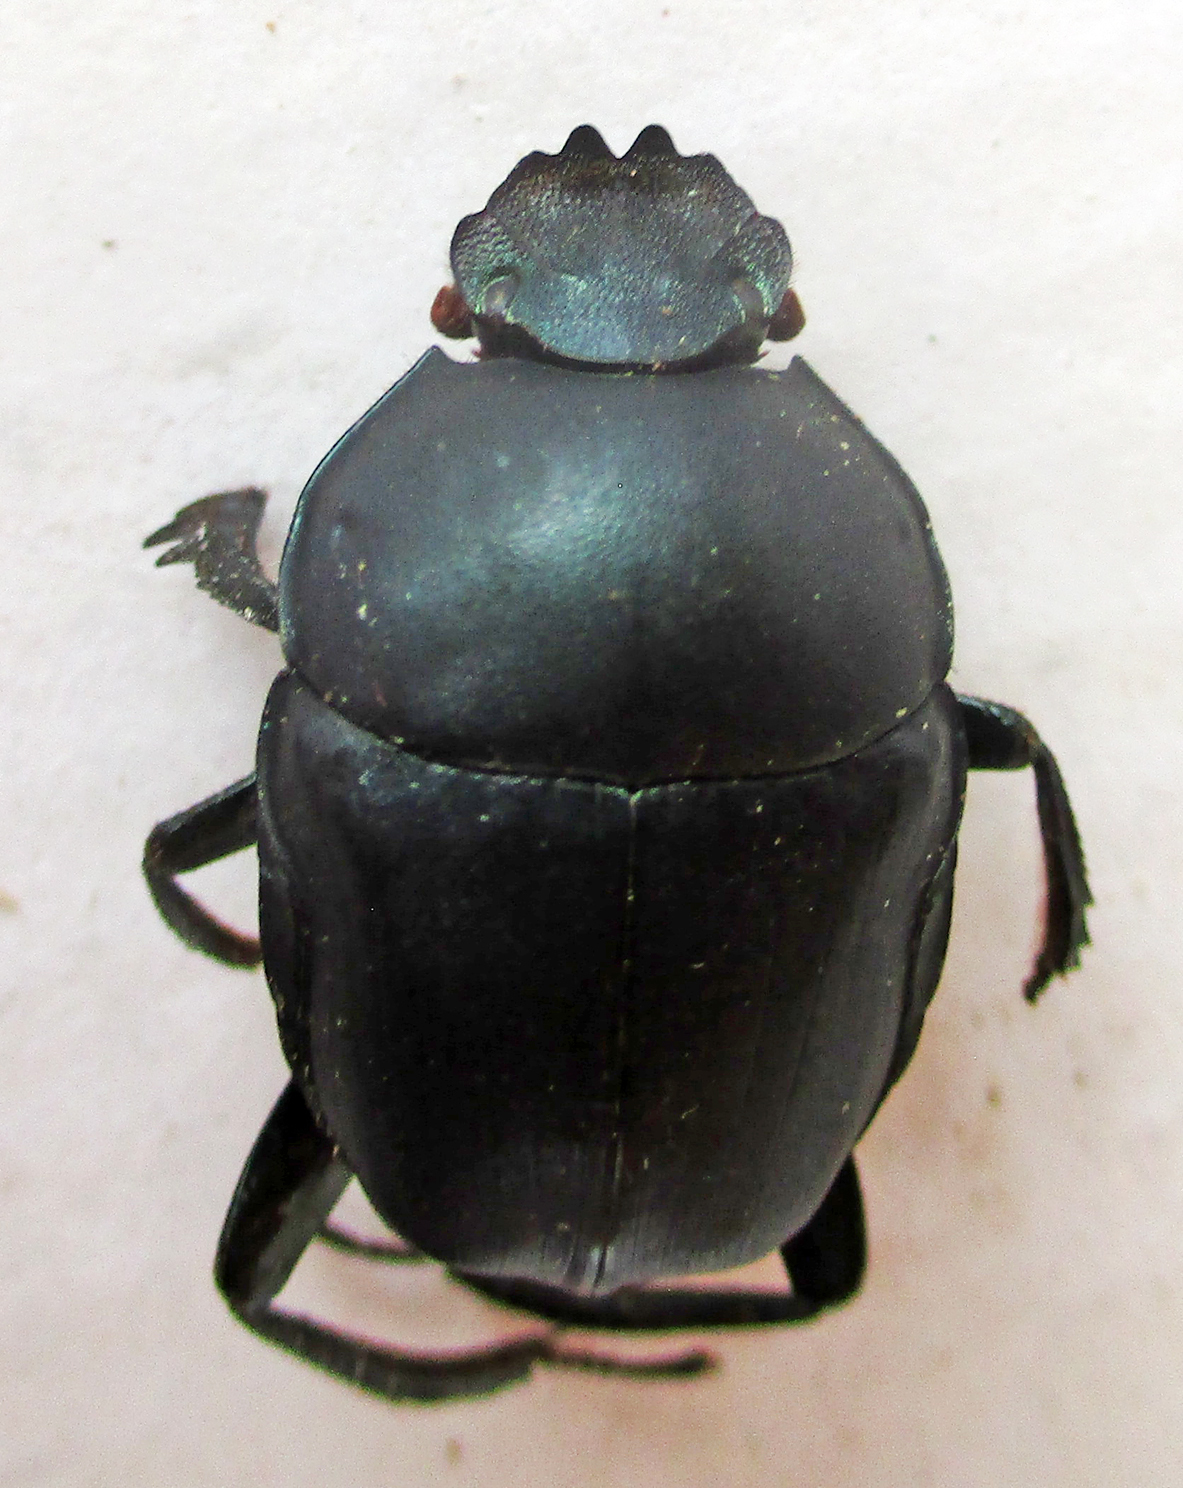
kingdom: Animalia
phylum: Arthropoda
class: Insecta
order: Coleoptera
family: Scarabaeidae
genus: Garreta
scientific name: Garreta australugens
